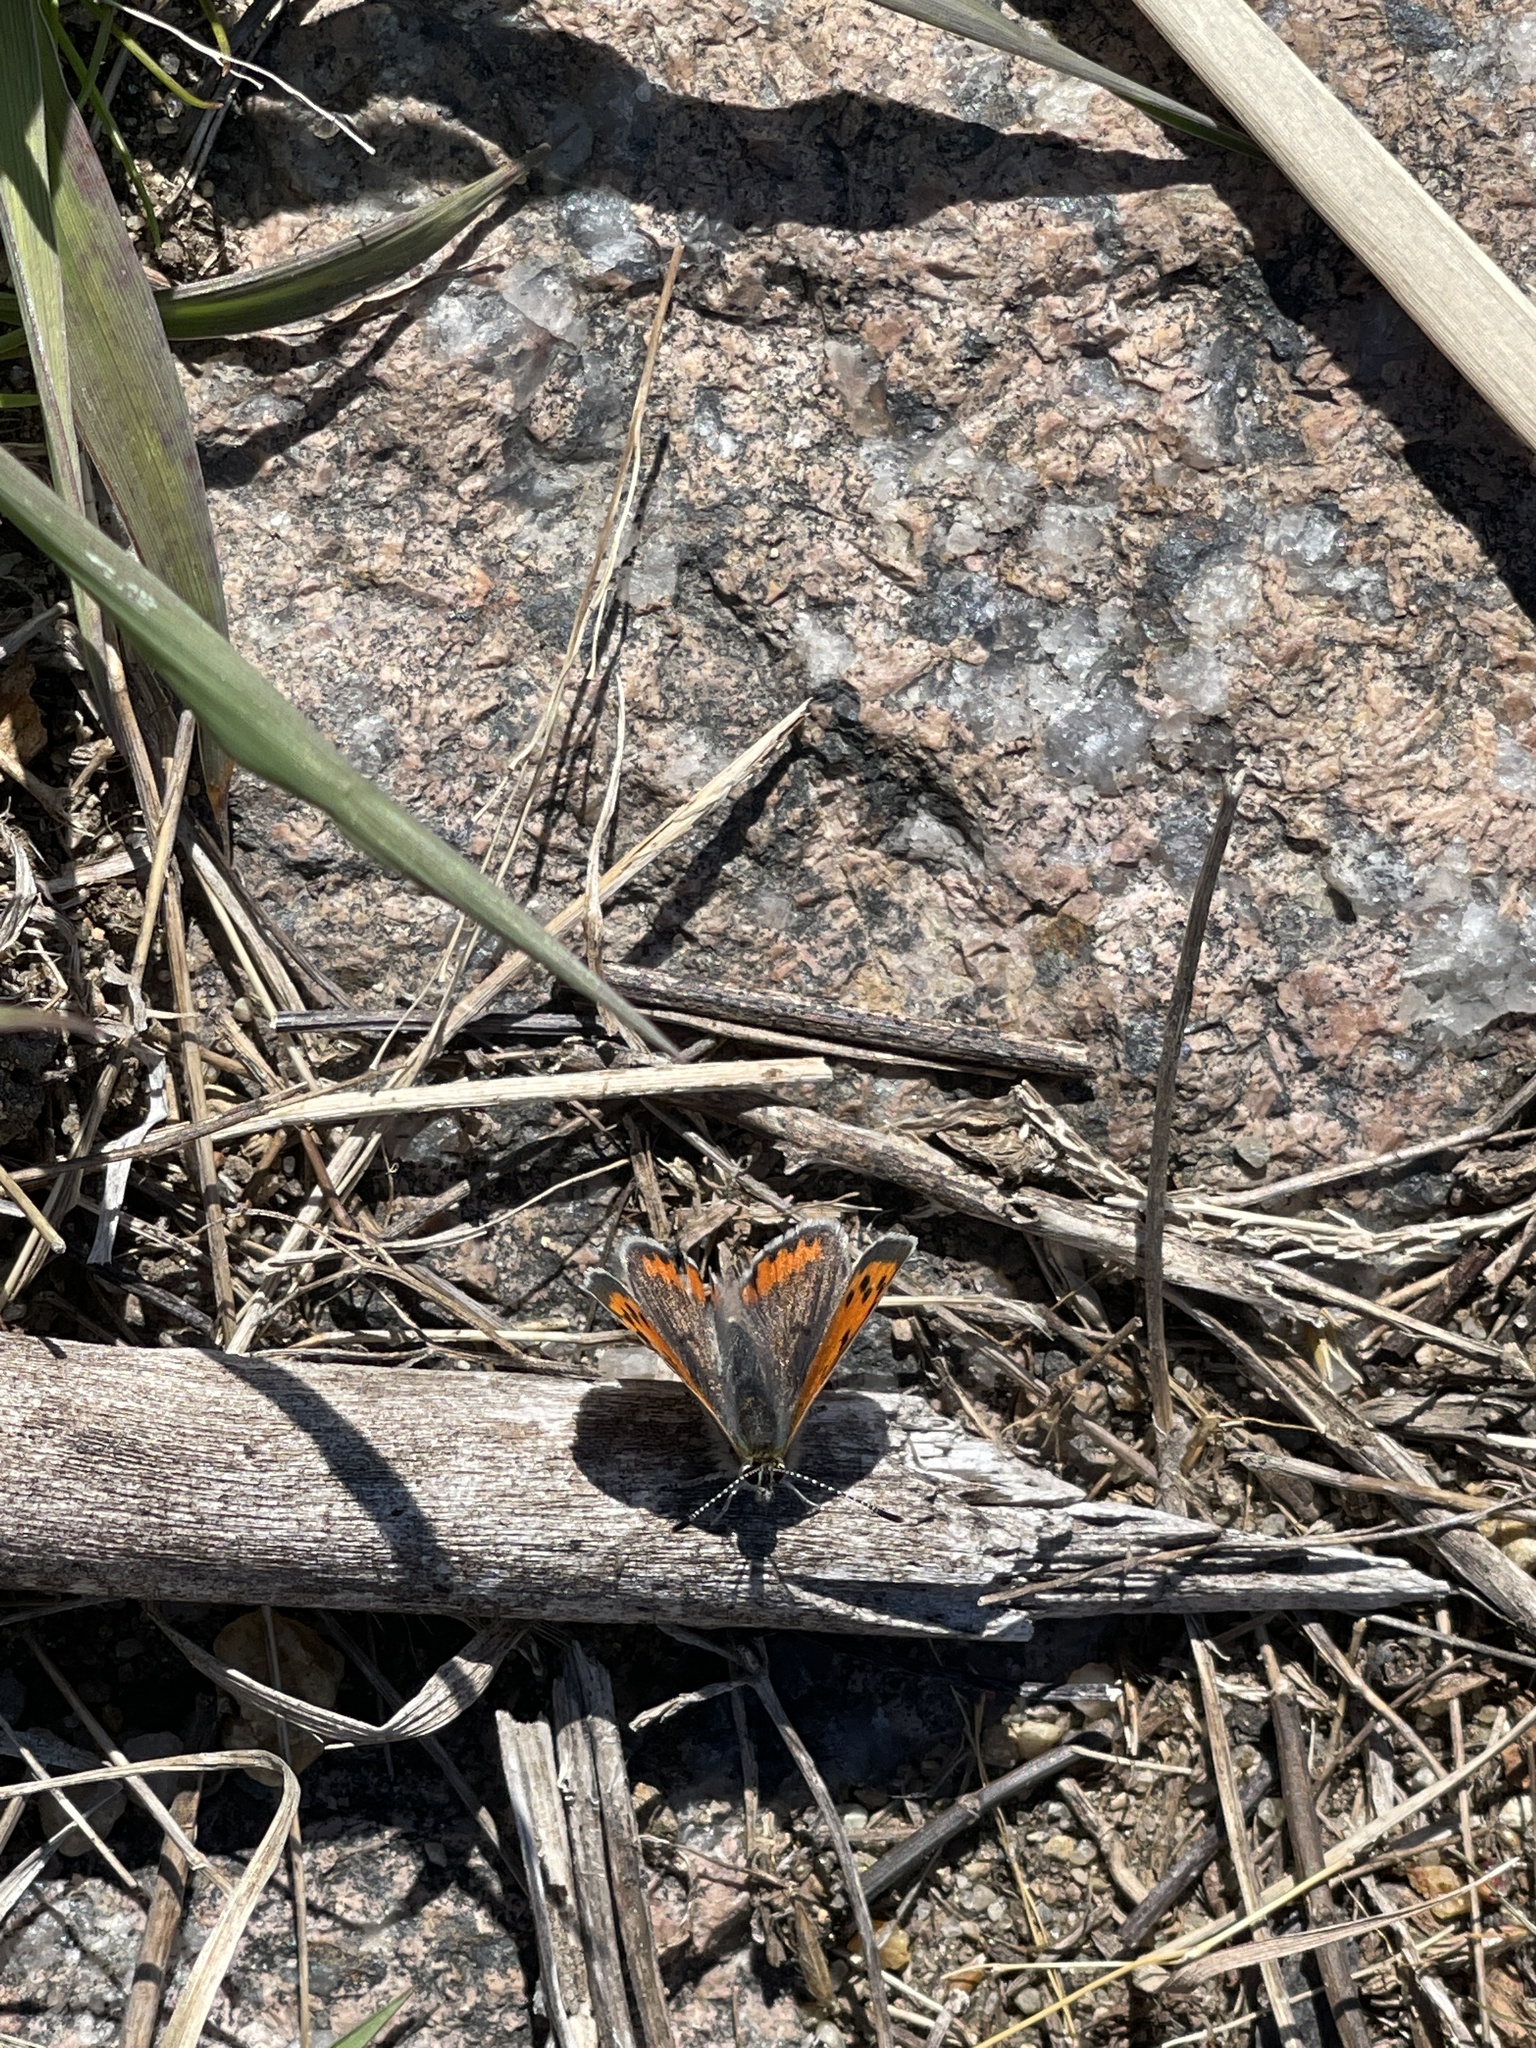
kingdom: Animalia
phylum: Arthropoda
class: Insecta
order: Lepidoptera
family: Lycaenidae
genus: Lycaena
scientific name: Lycaena hypophlaeas
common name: American copper
